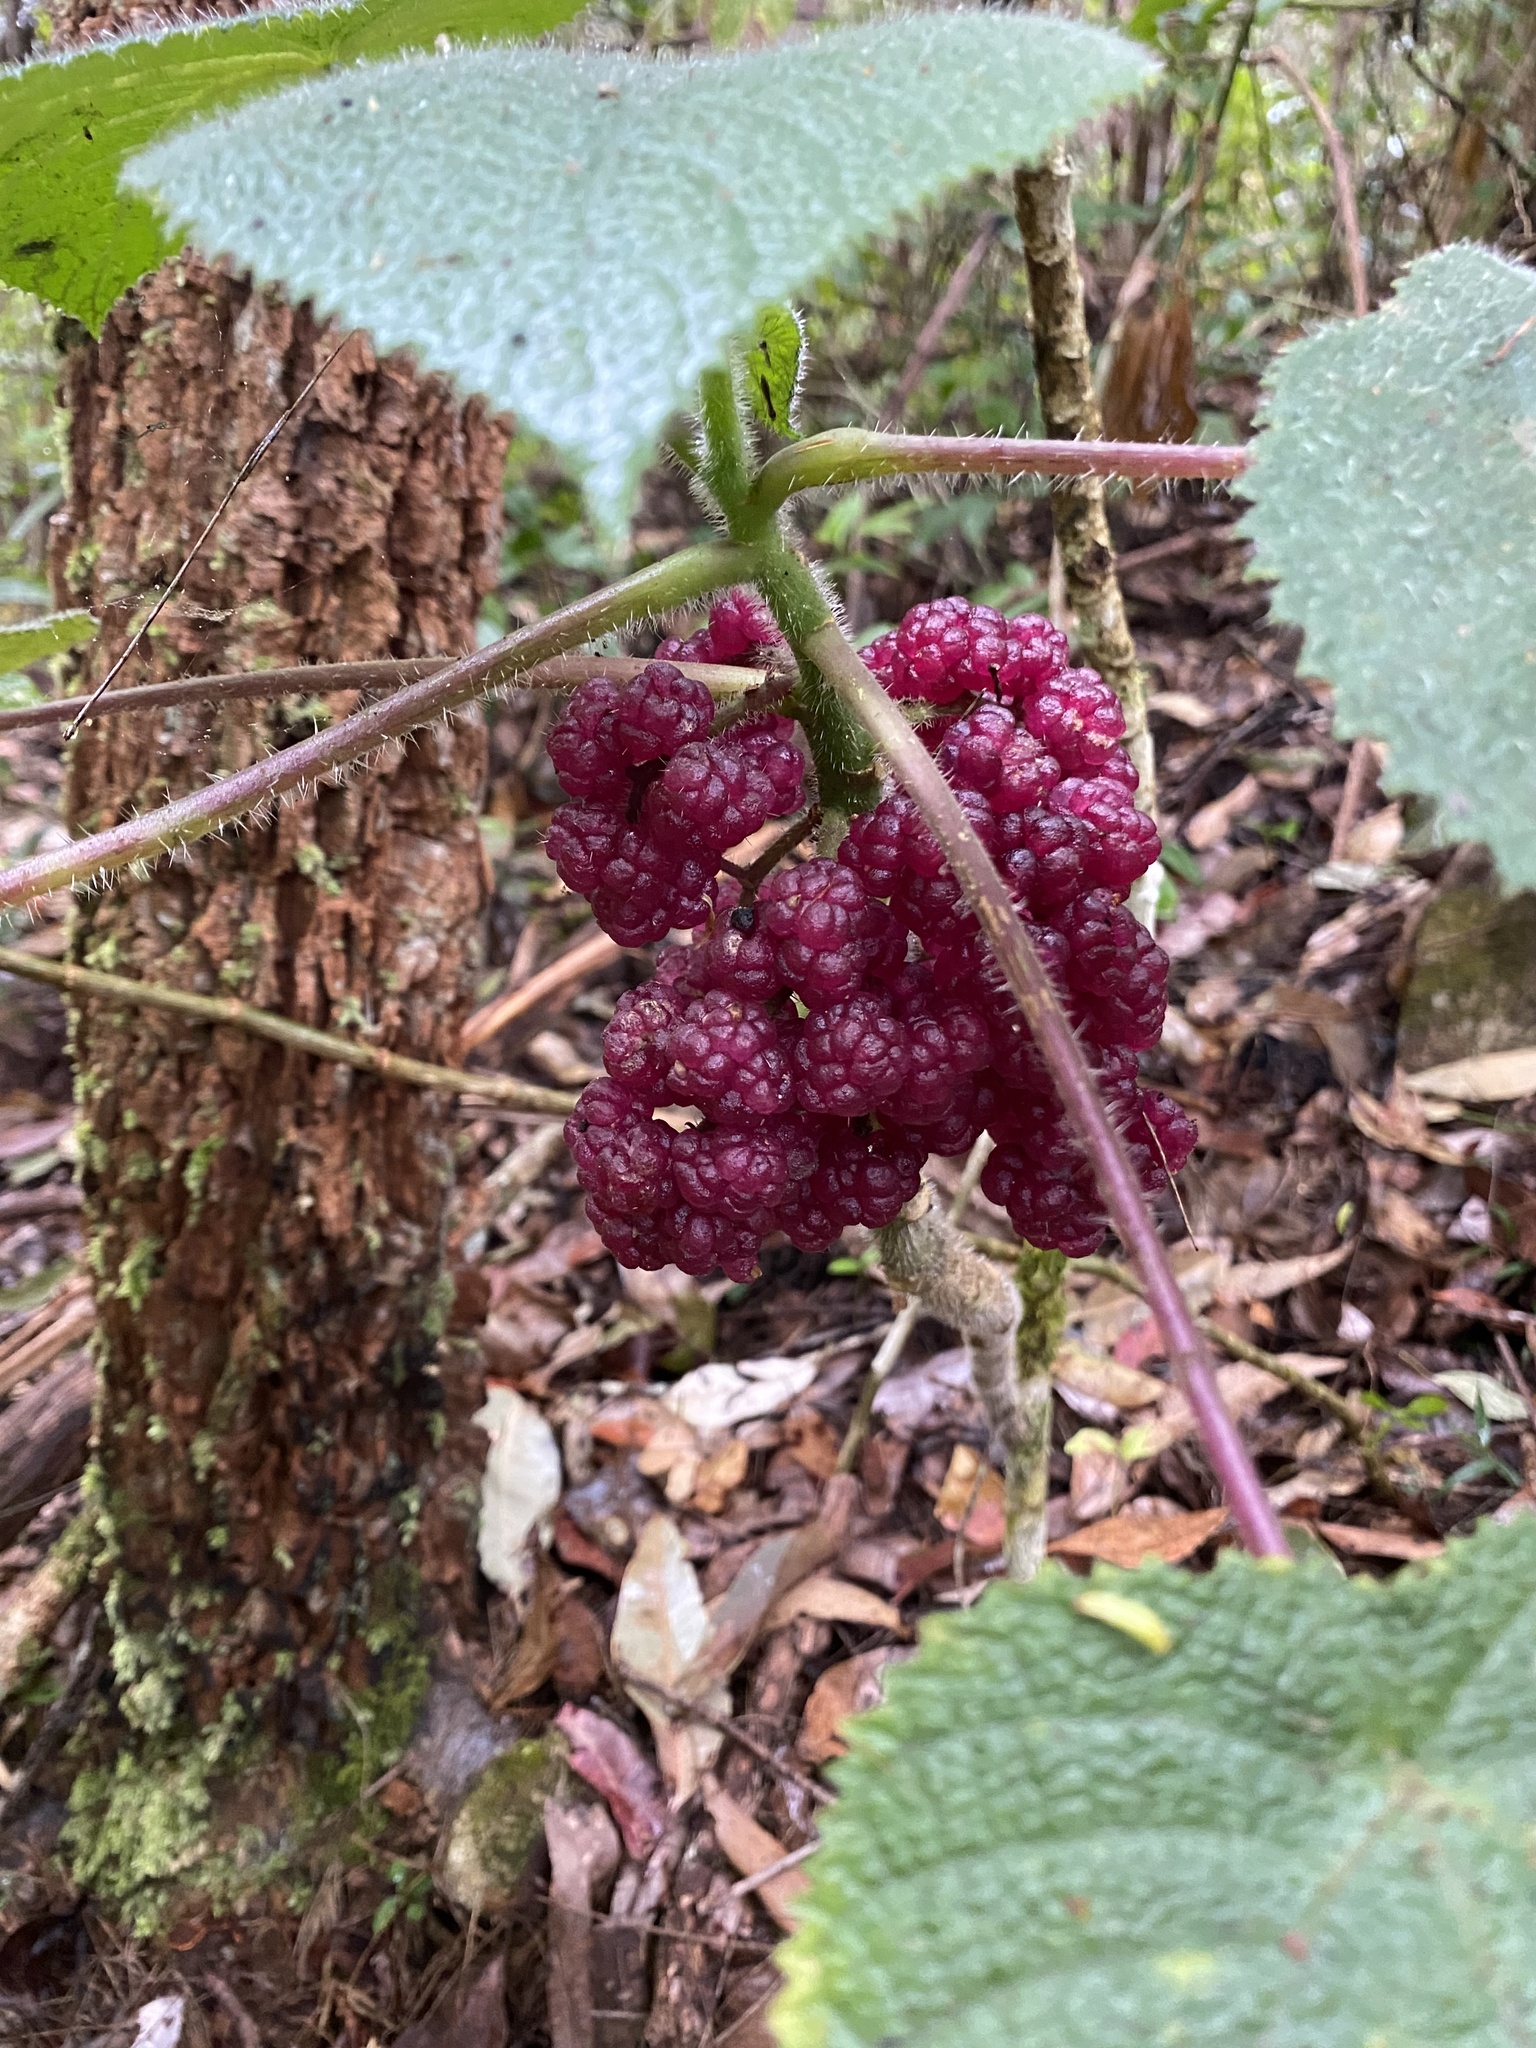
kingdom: Plantae
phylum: Tracheophyta
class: Magnoliopsida
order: Rosales
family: Urticaceae
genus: Dendrocnide
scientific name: Dendrocnide moroides
